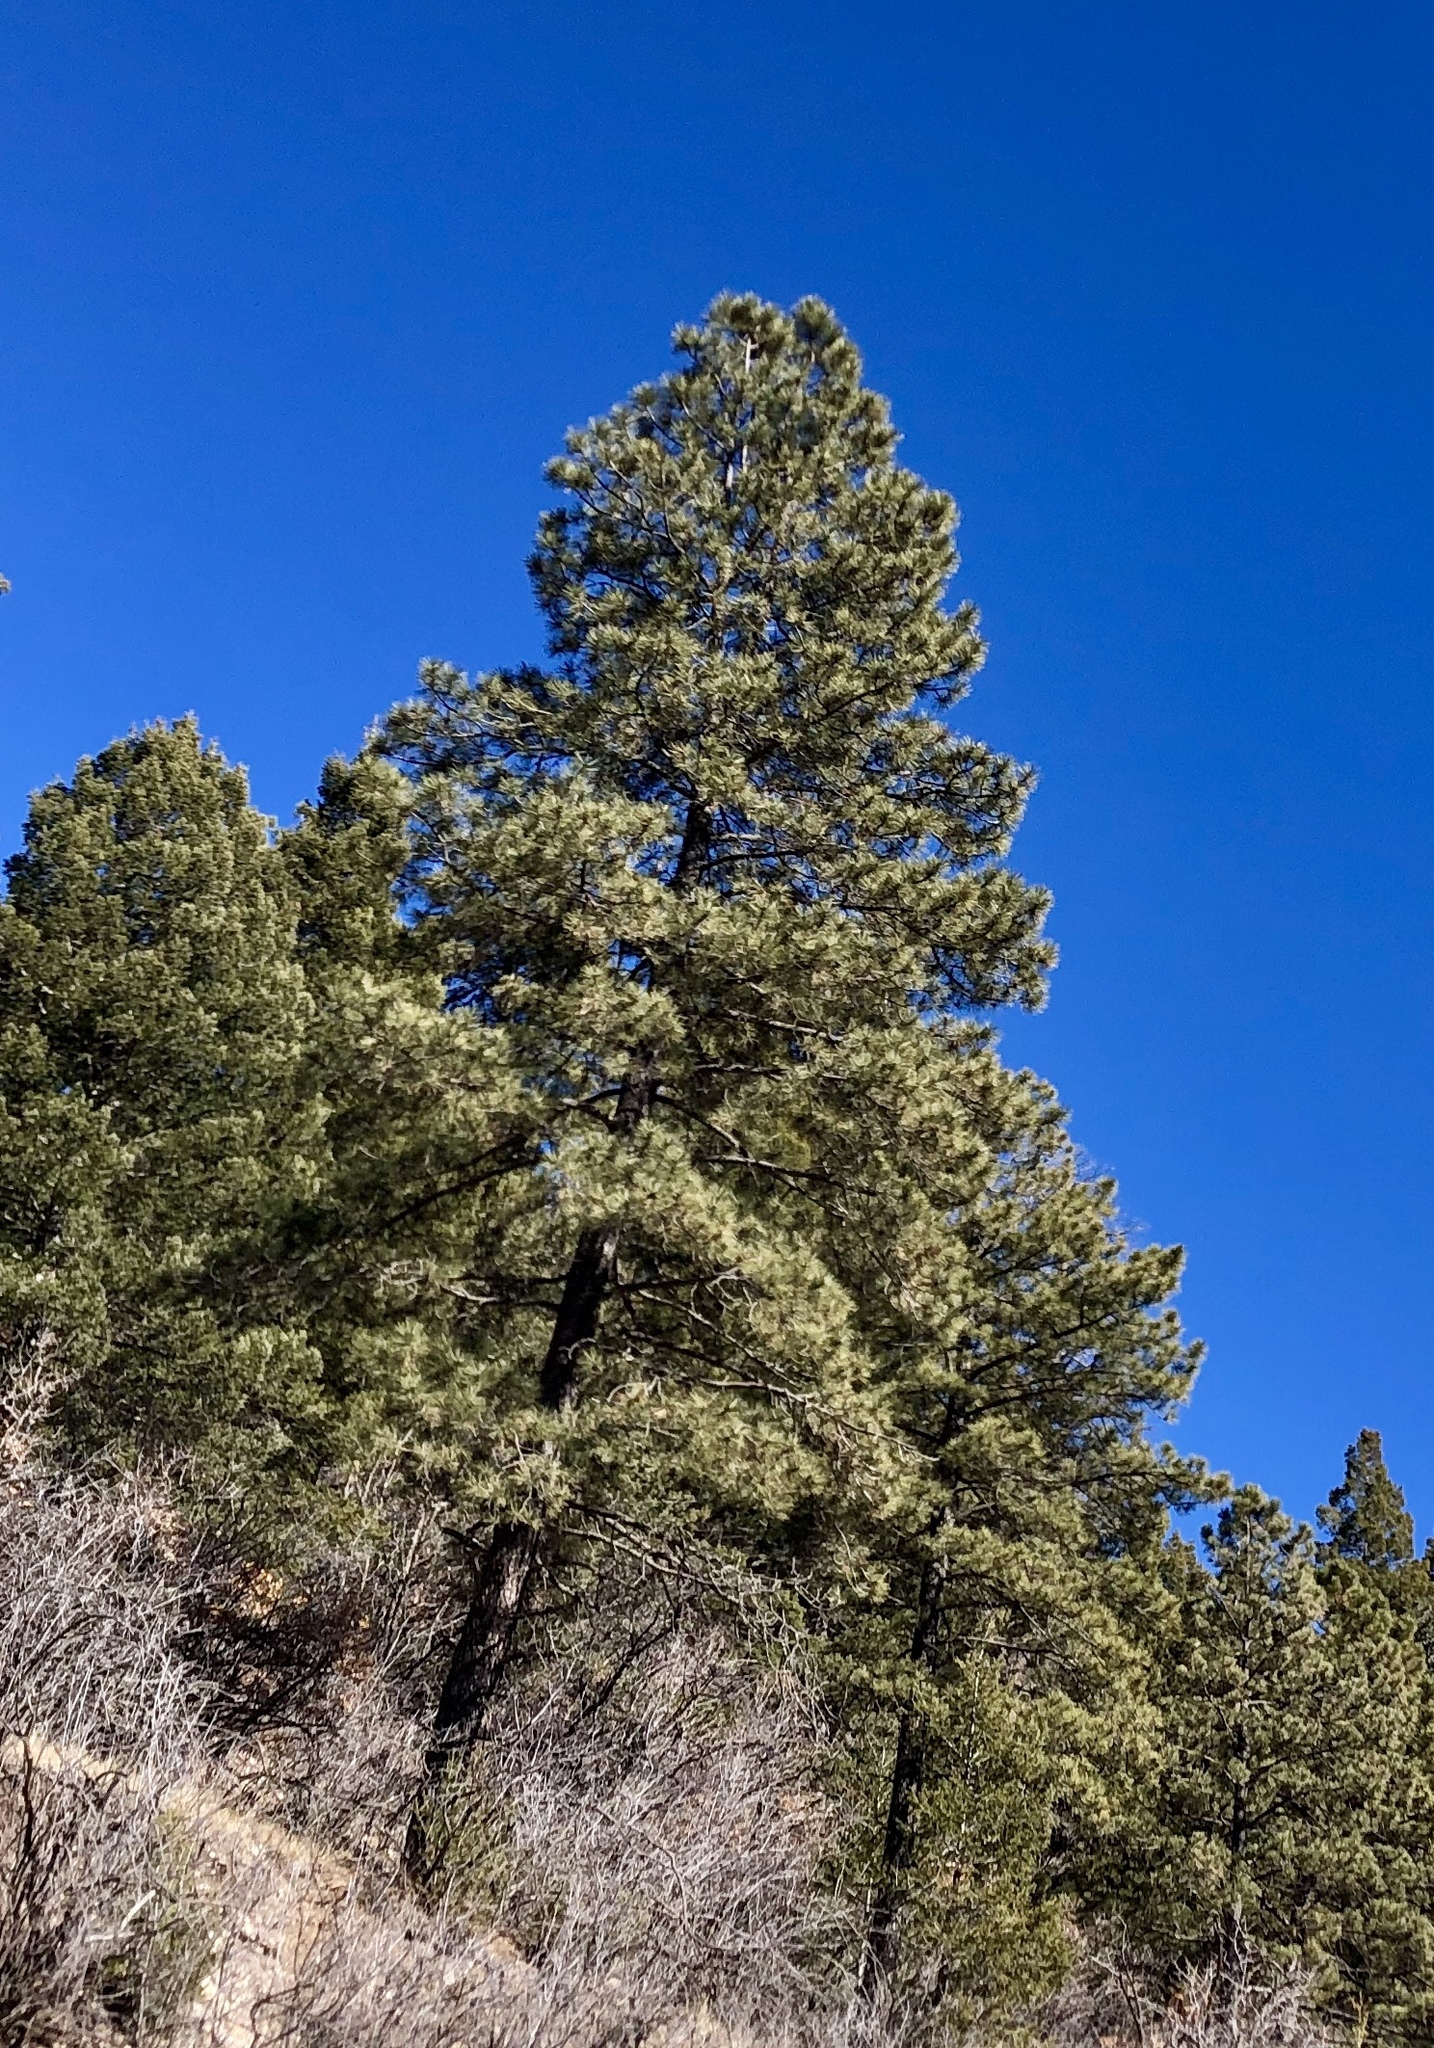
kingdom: Plantae
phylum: Tracheophyta
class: Pinopsida
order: Pinales
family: Pinaceae
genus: Pinus
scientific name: Pinus ponderosa
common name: Western yellow-pine
